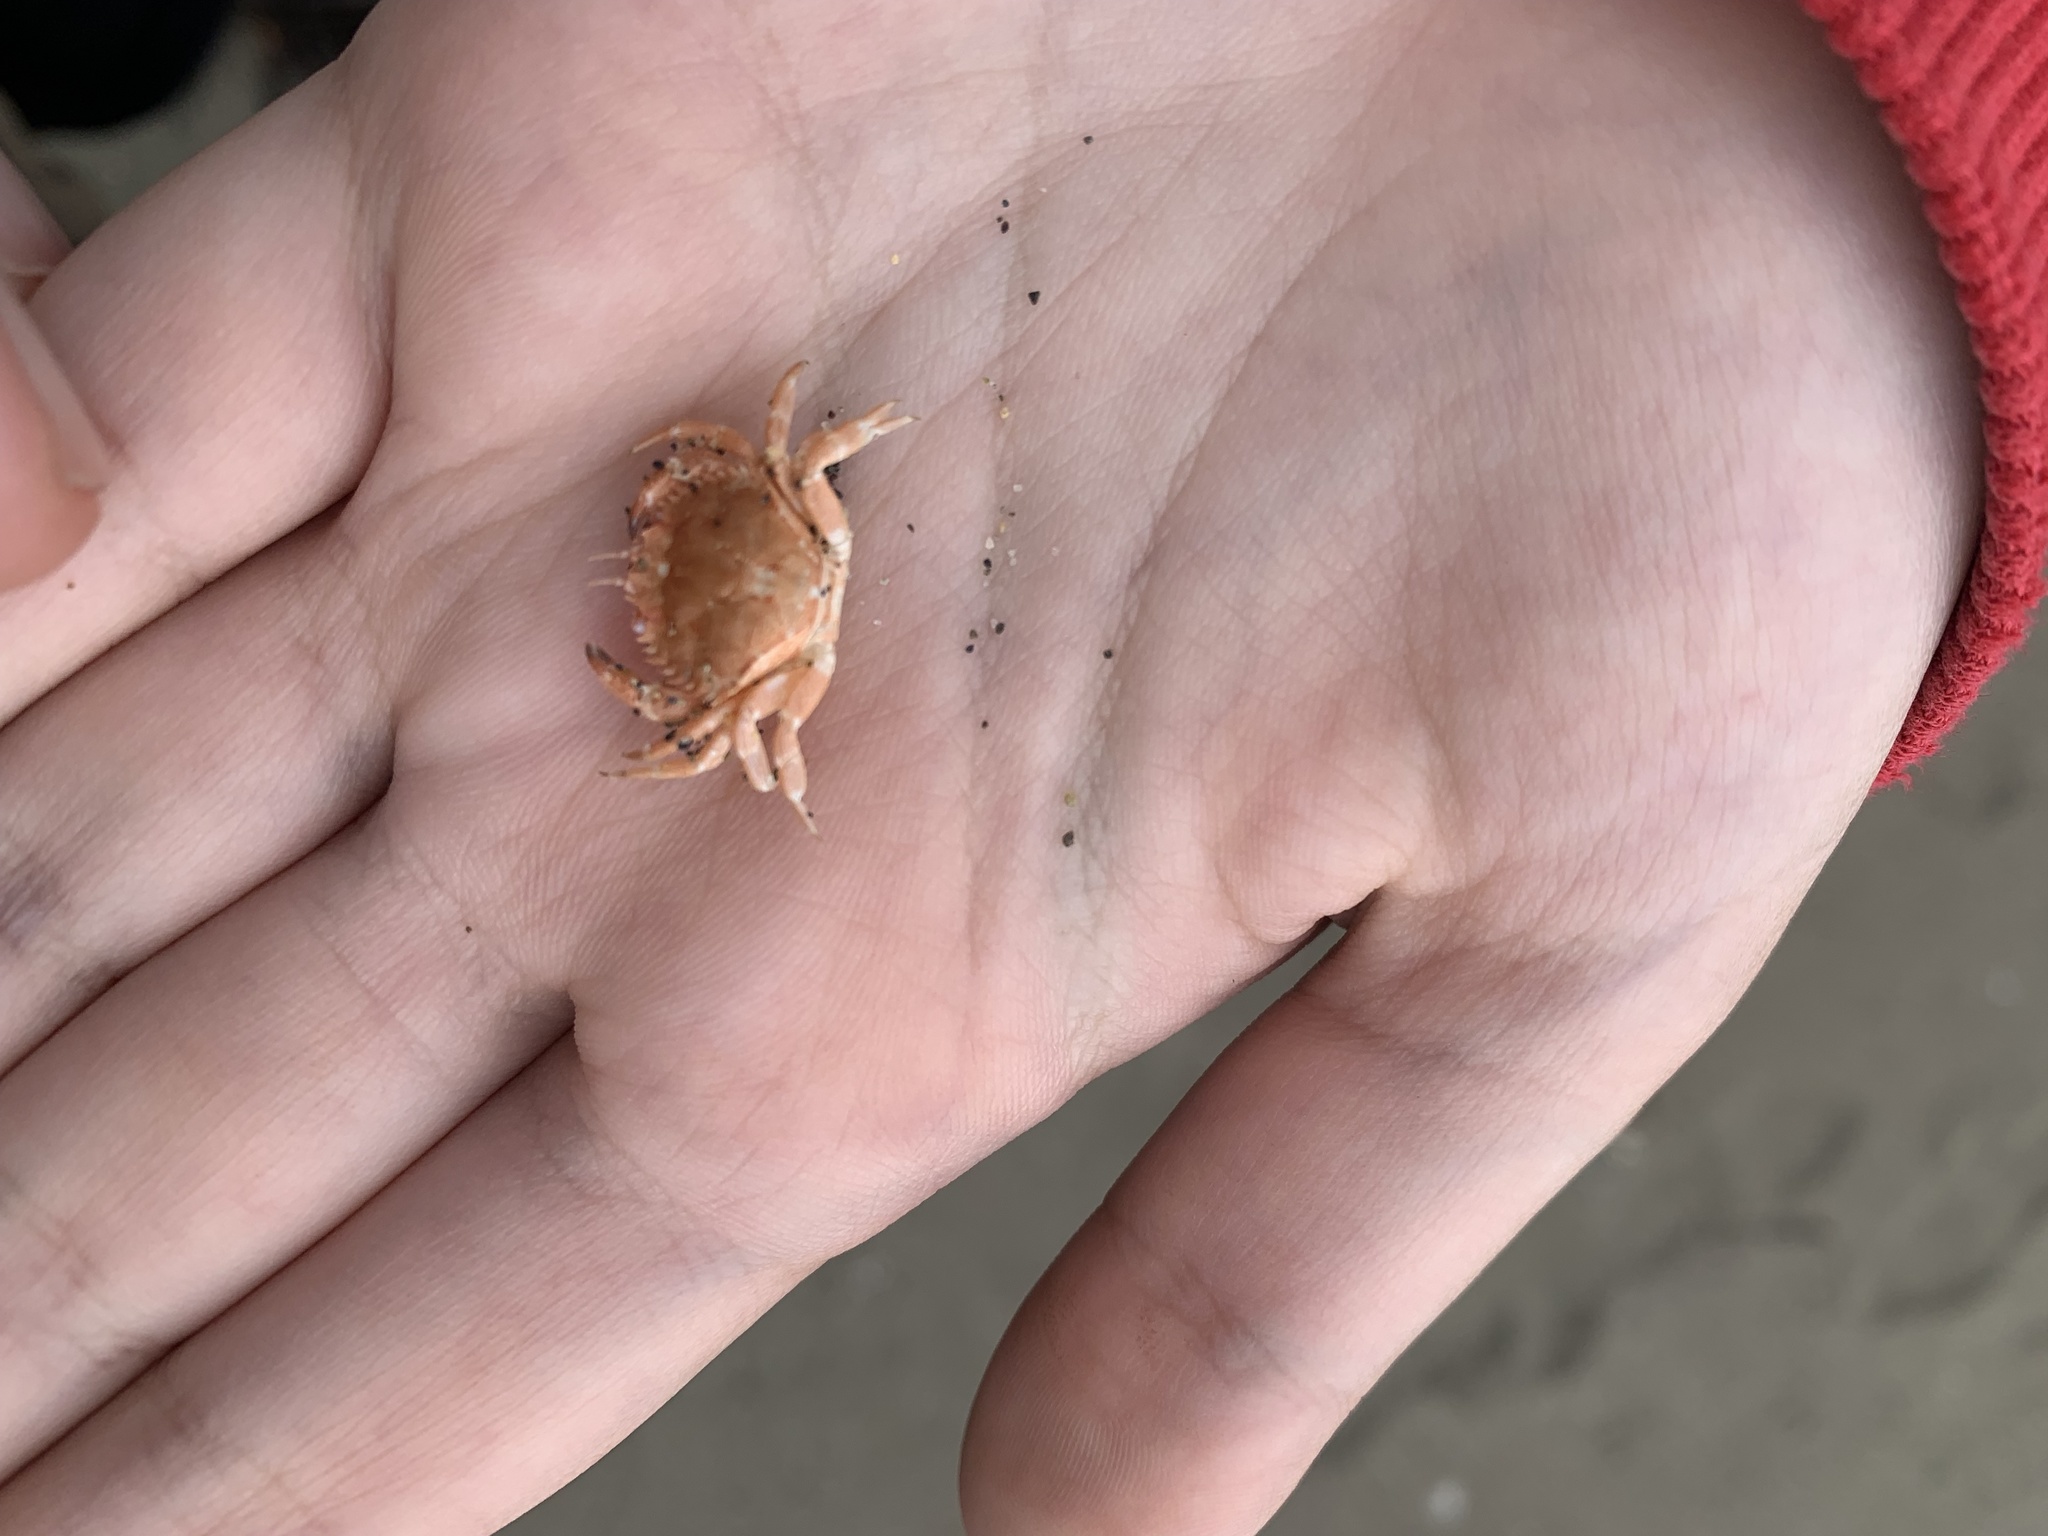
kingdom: Animalia
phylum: Arthropoda
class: Malacostraca
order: Decapoda
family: Cancridae
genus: Metacarcinus
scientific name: Metacarcinus edwardsii
